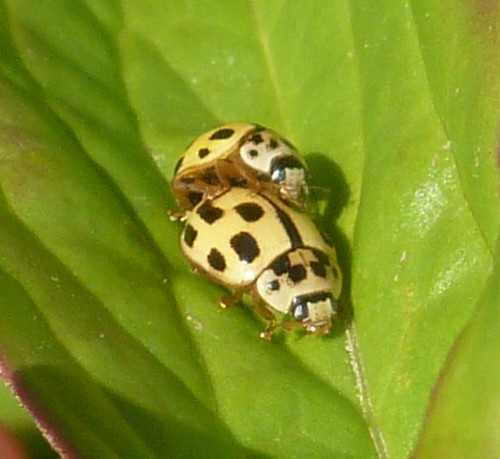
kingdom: Animalia
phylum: Arthropoda
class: Insecta
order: Coleoptera
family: Coccinellidae
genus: Propylaea
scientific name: Propylaea quatuordecimpunctata
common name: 14-spotted ladybird beetle
